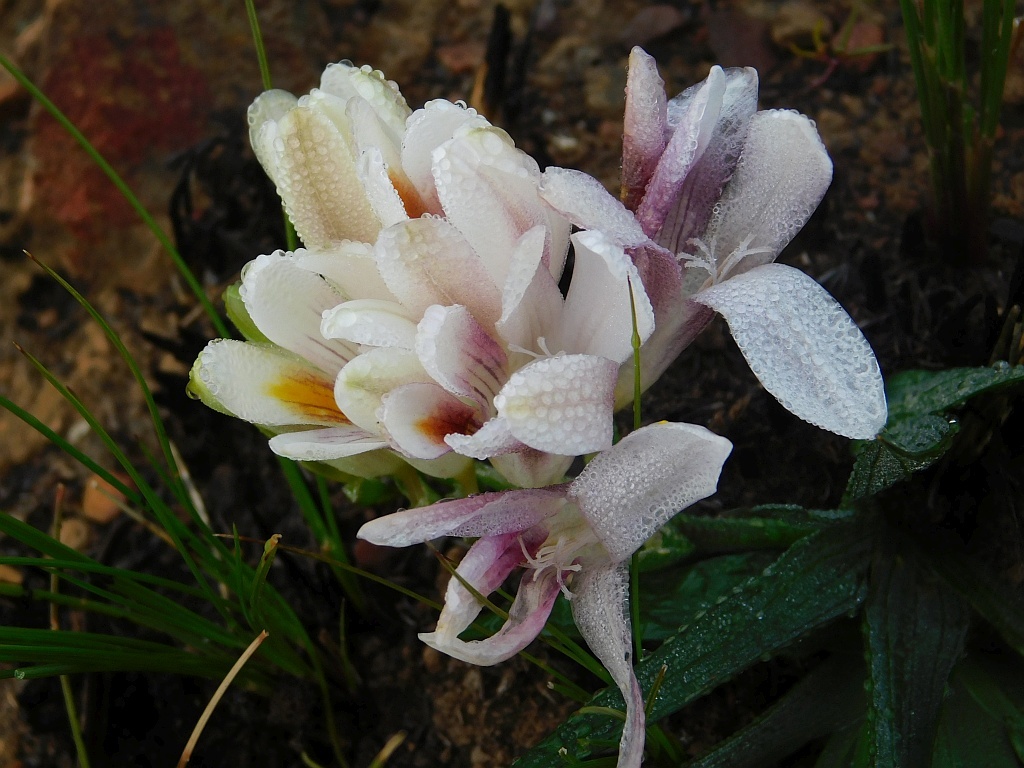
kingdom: Plantae
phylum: Tracheophyta
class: Liliopsida
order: Asparagales
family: Iridaceae
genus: Freesia
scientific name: Freesia caryophyllacea
